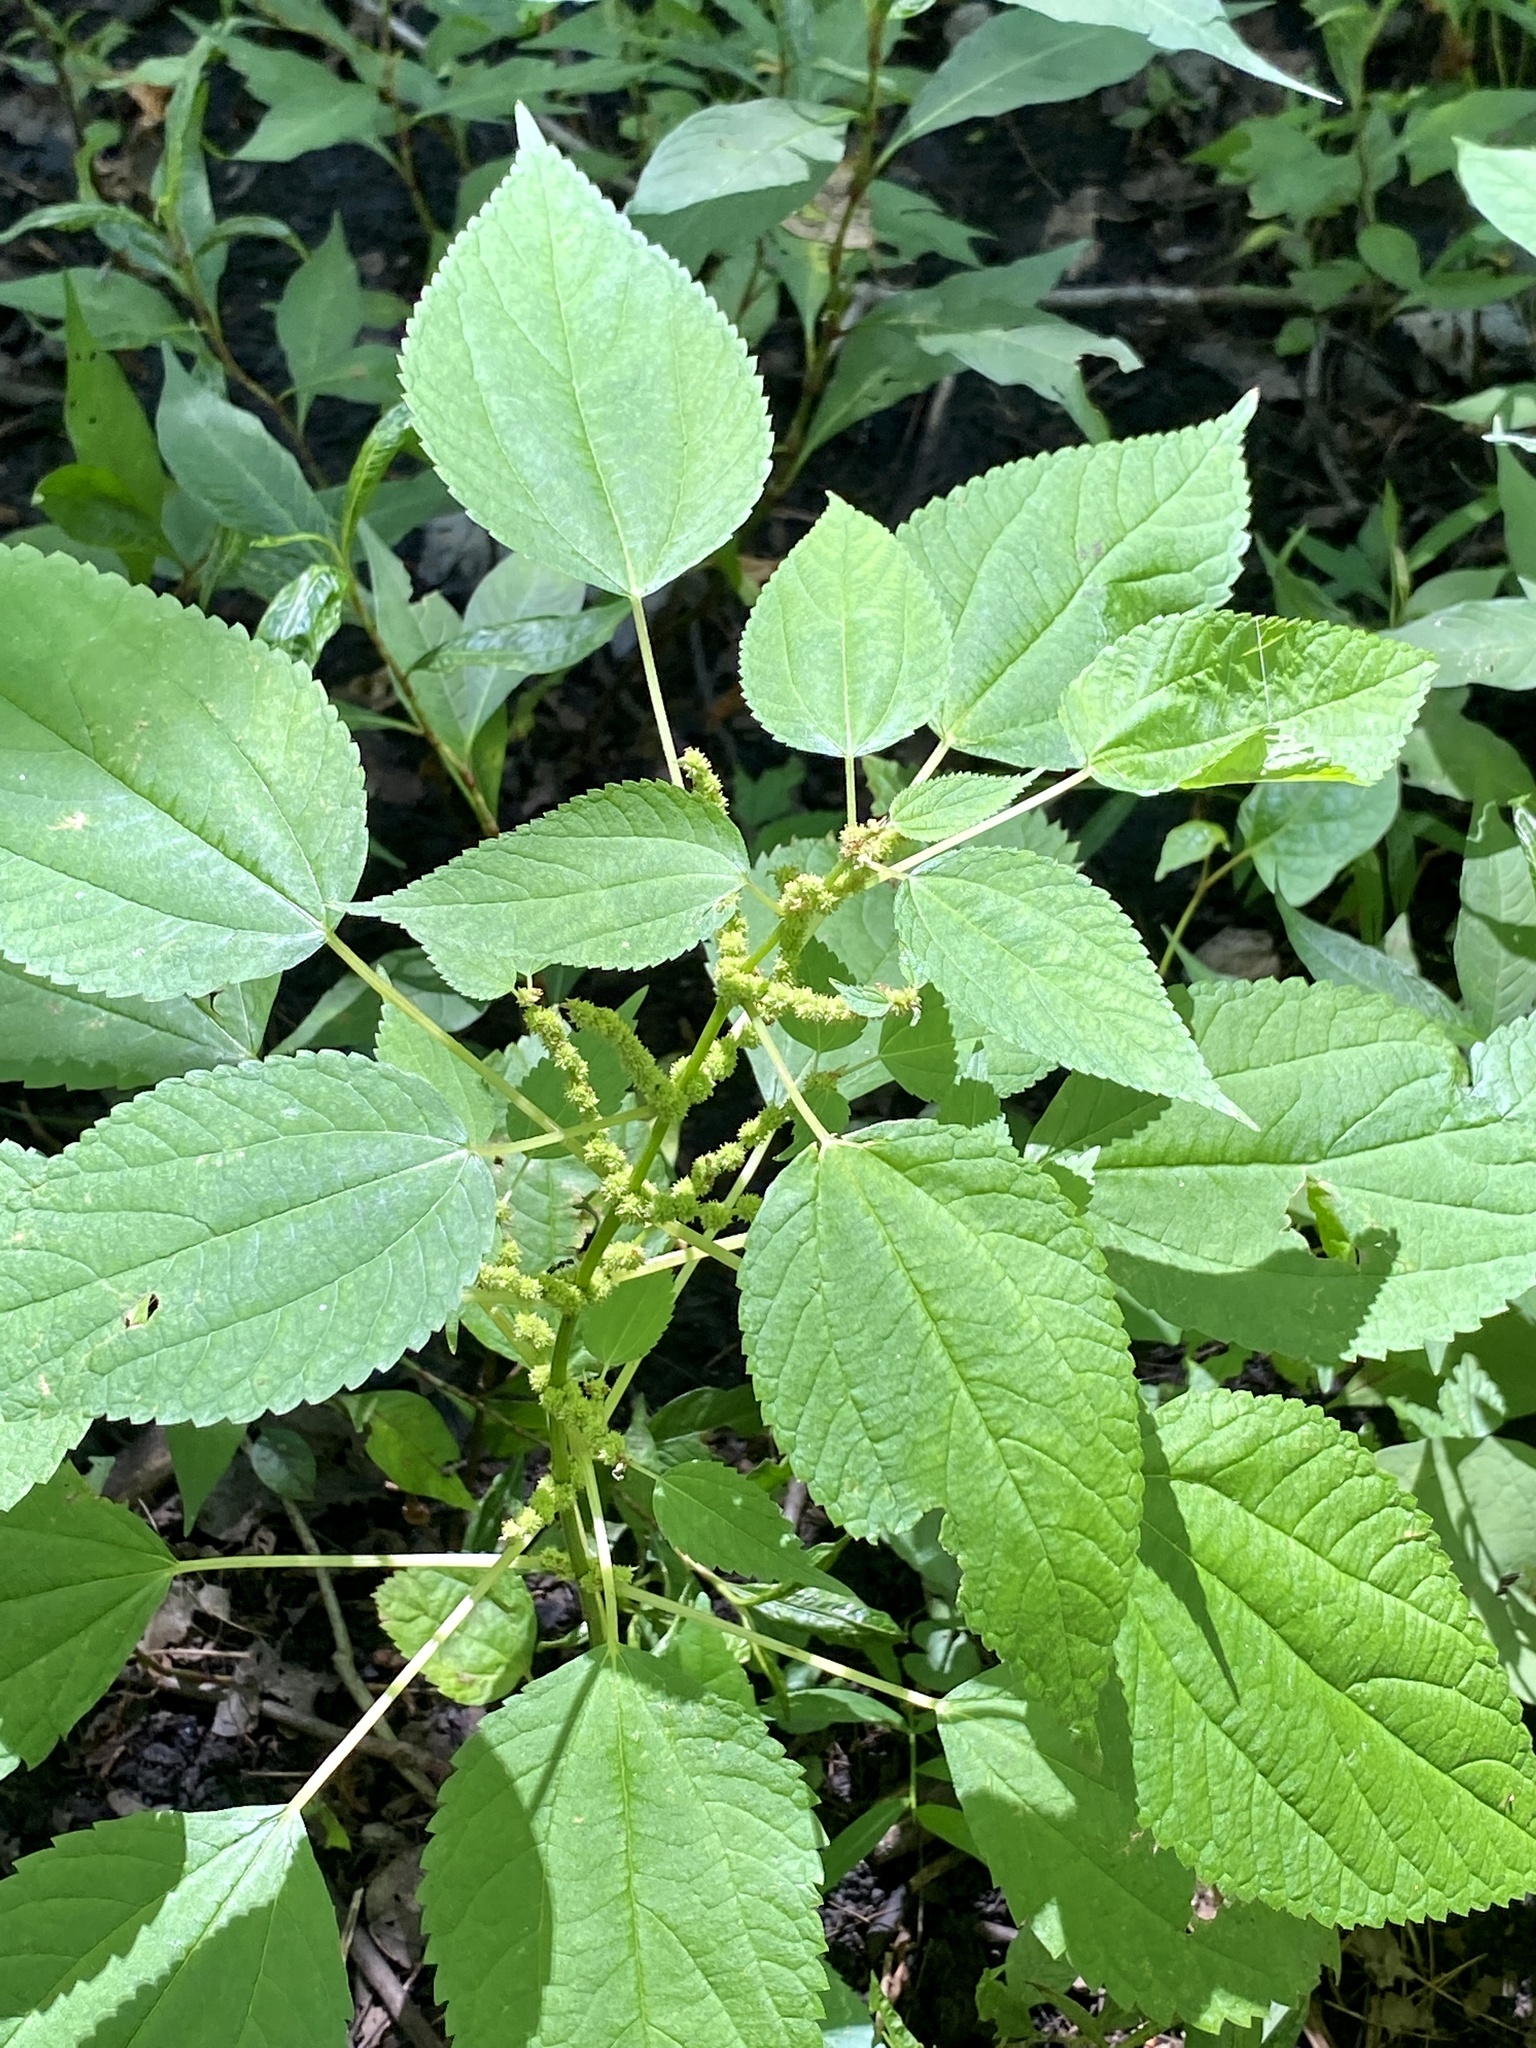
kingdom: Plantae
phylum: Tracheophyta
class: Magnoliopsida
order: Rosales
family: Urticaceae
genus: Boehmeria
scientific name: Boehmeria cylindrica
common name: Bog-hemp
